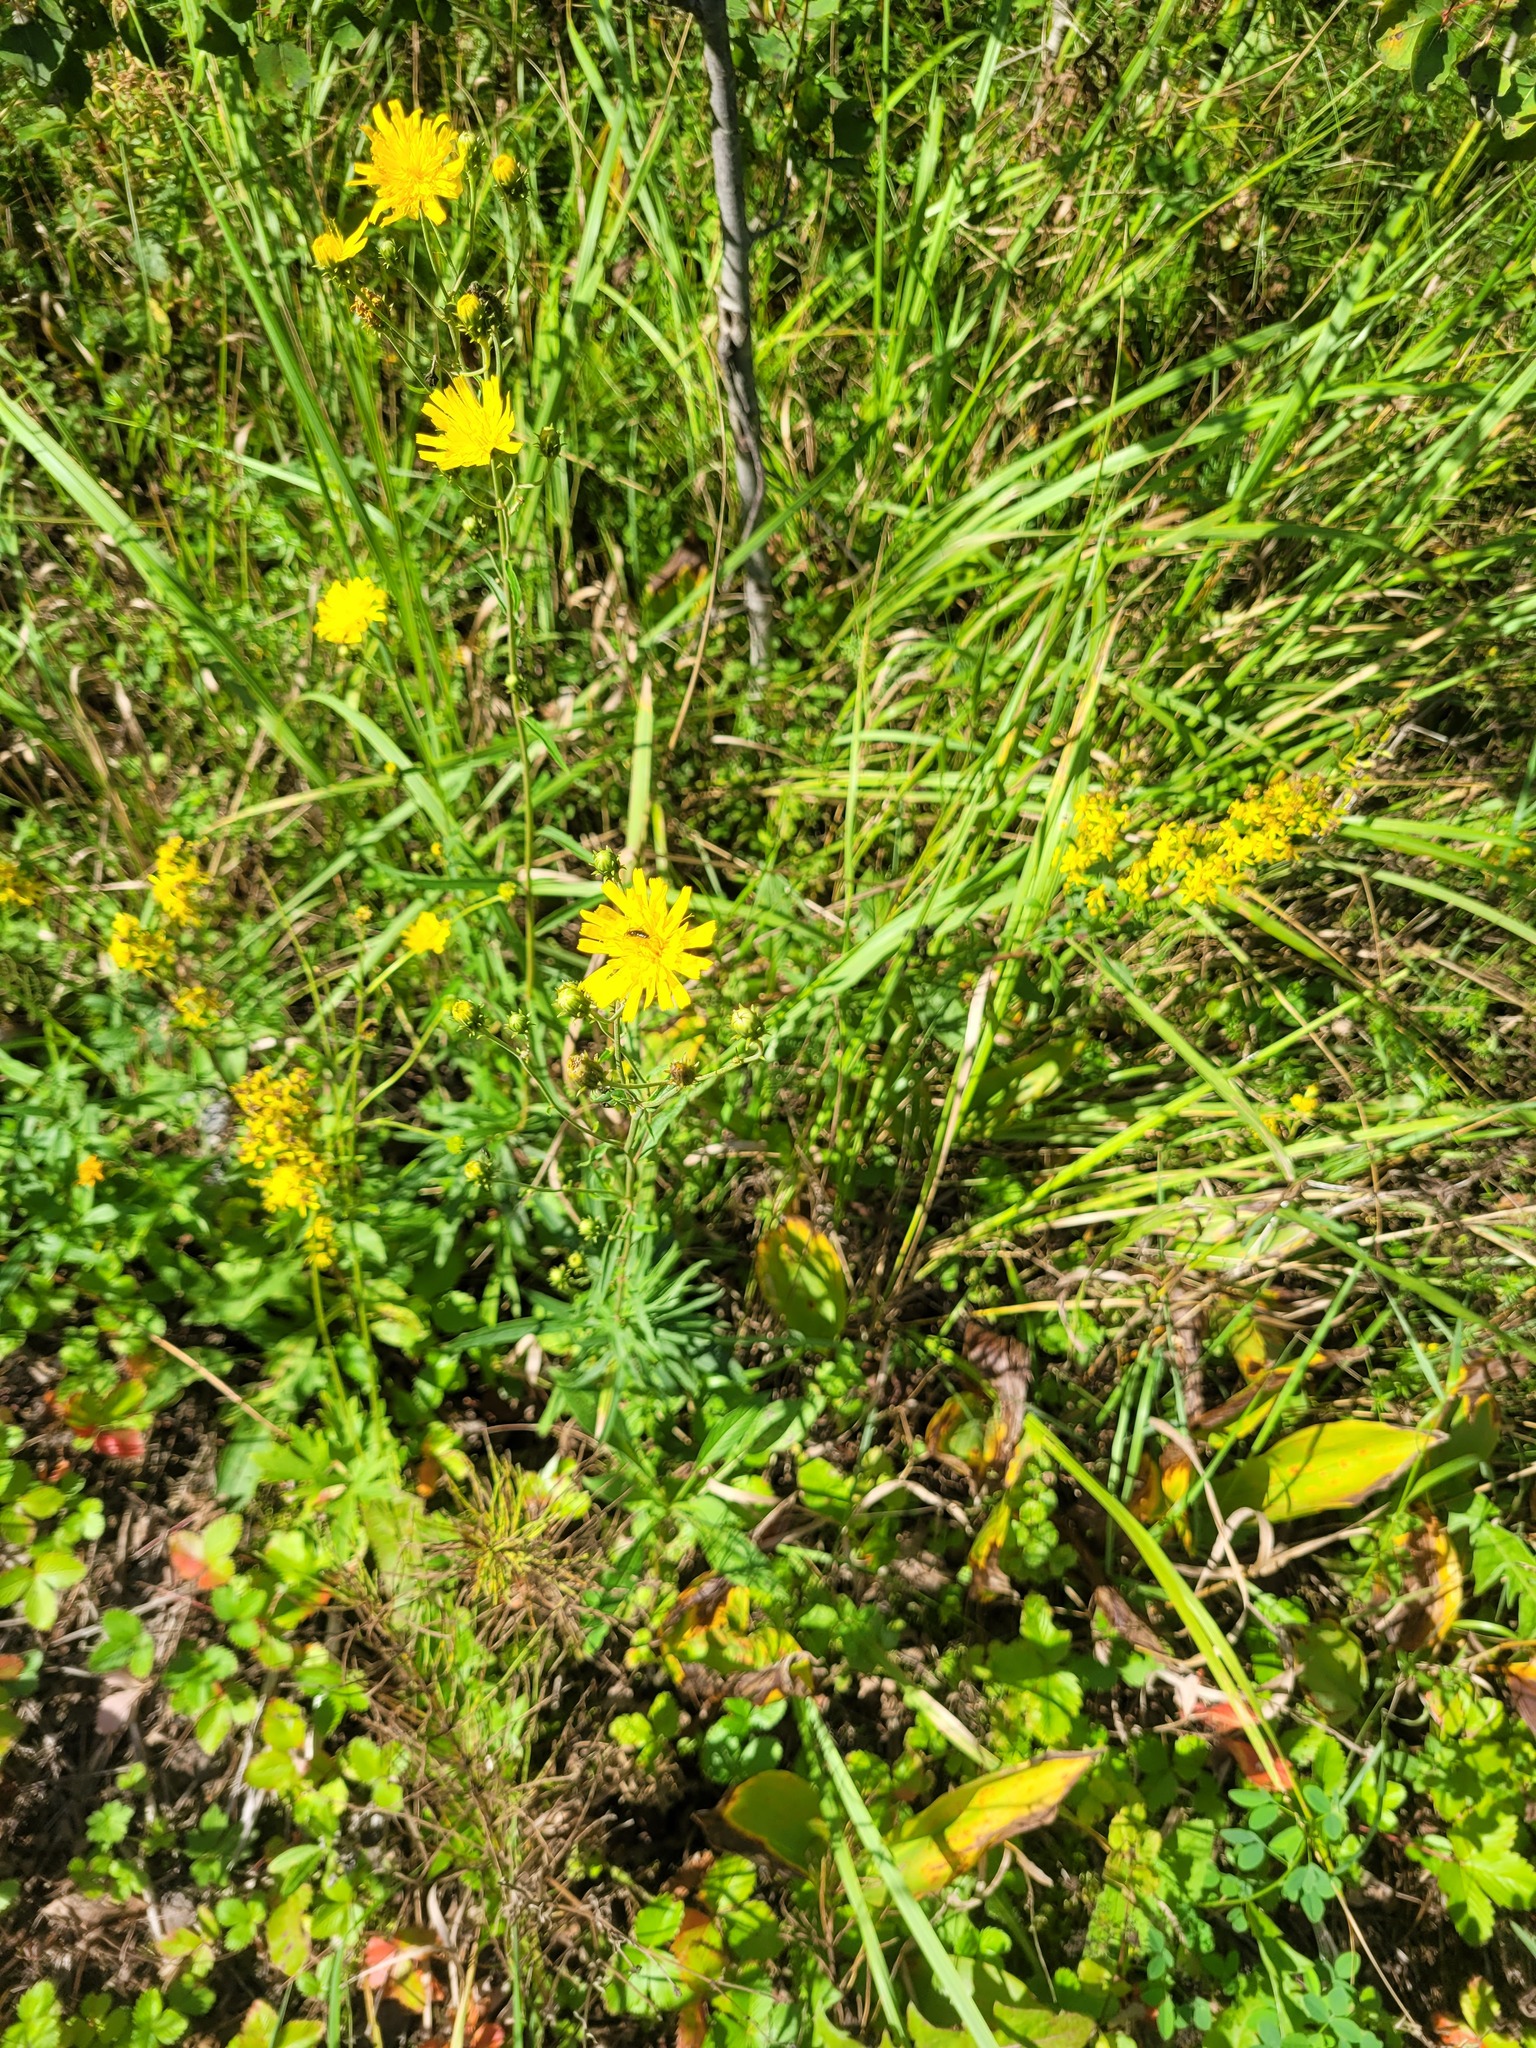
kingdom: Plantae
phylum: Tracheophyta
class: Magnoliopsida
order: Asterales
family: Asteraceae
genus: Hieracium
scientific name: Hieracium umbellatum
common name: Northern hawkweed
